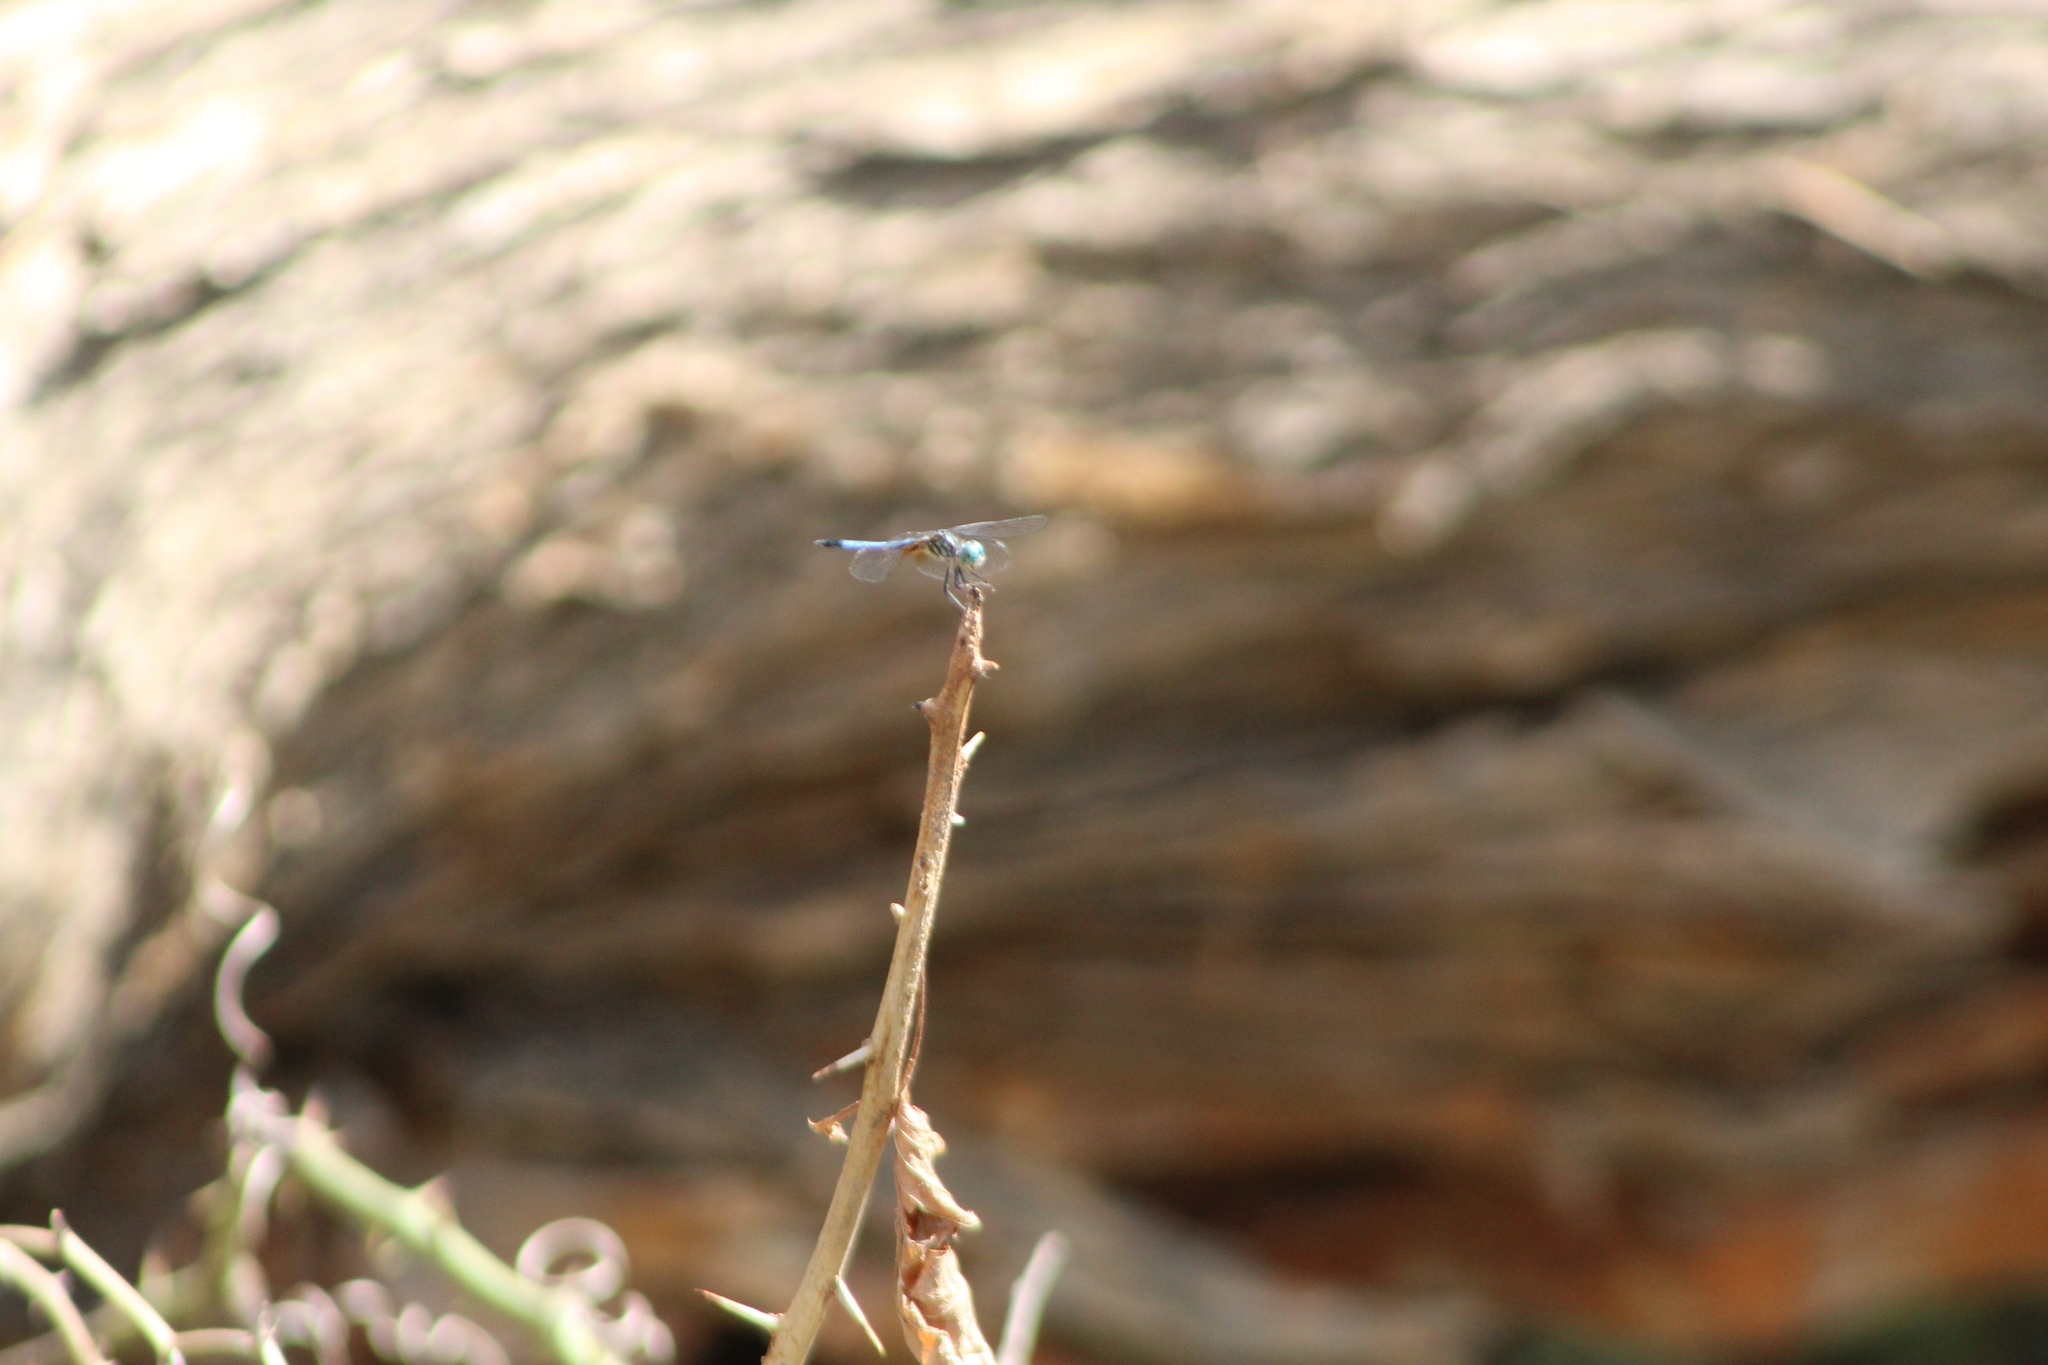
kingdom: Animalia
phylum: Arthropoda
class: Insecta
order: Odonata
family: Libellulidae
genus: Pachydiplax
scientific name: Pachydiplax longipennis
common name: Blue dasher
